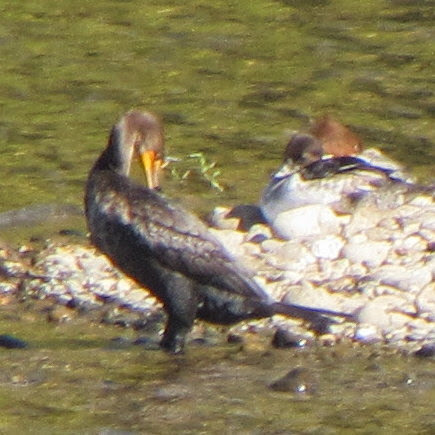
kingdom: Animalia
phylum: Chordata
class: Aves
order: Suliformes
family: Phalacrocoracidae
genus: Phalacrocorax
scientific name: Phalacrocorax auritus
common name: Double-crested cormorant
